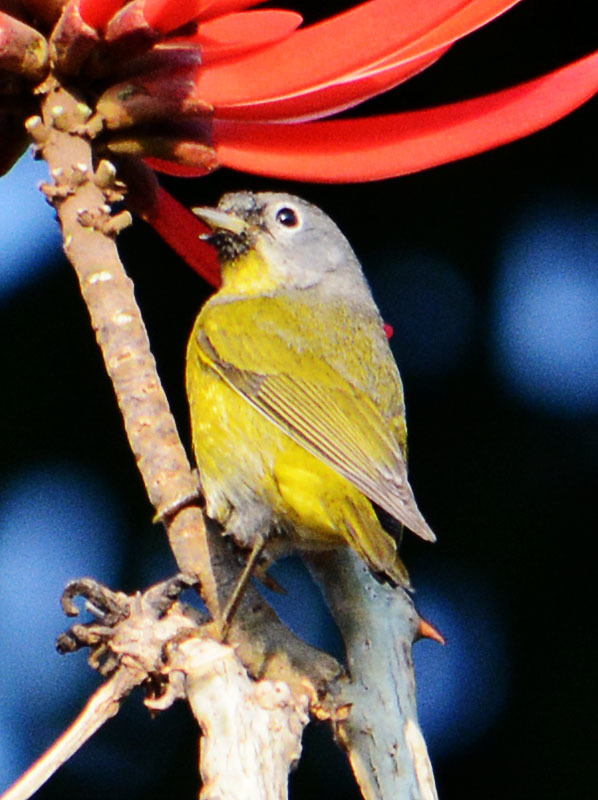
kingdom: Animalia
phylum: Chordata
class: Aves
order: Passeriformes
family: Parulidae
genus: Leiothlypis
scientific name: Leiothlypis ruficapilla
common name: Nashville warbler
